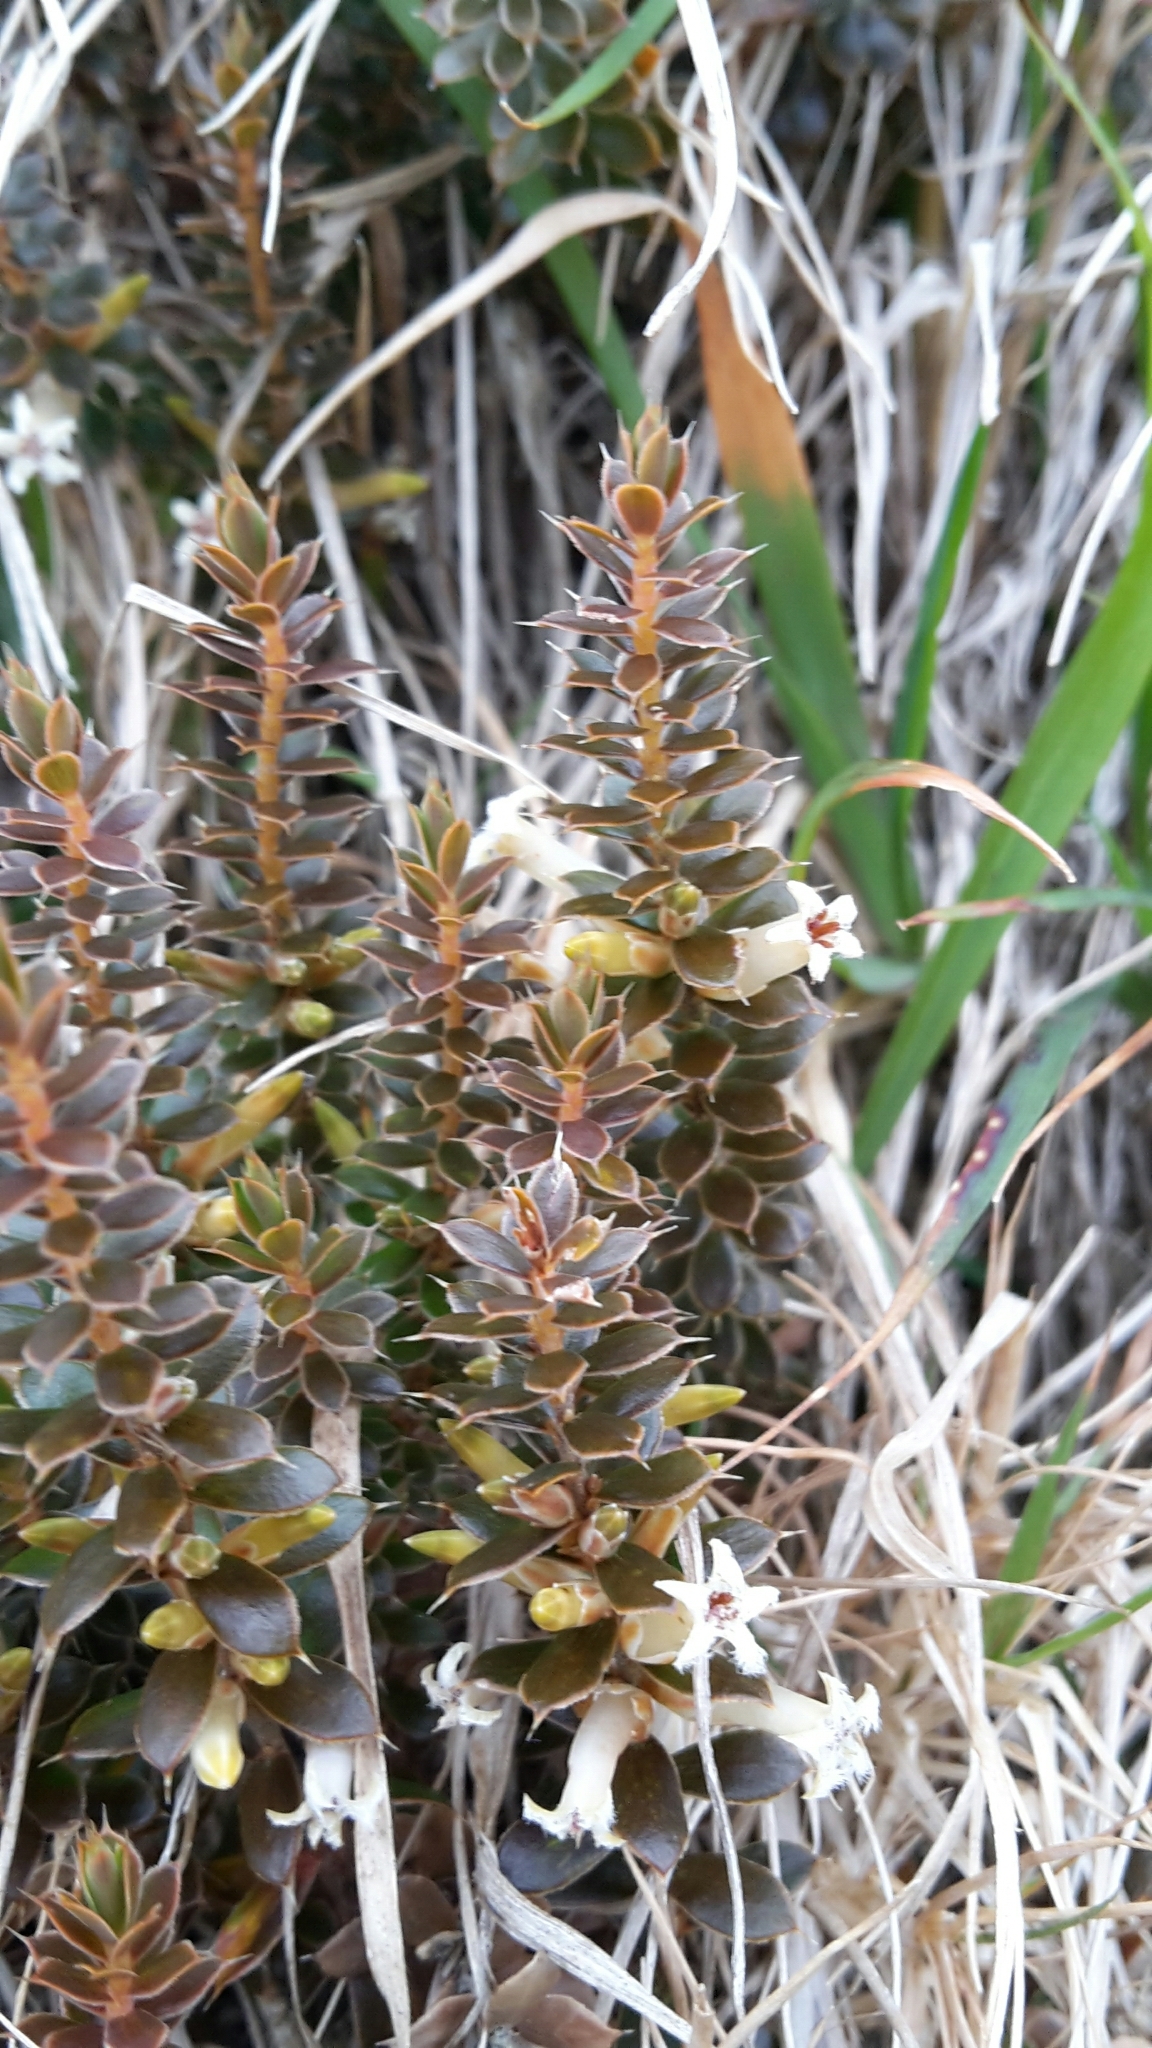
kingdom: Plantae
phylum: Tracheophyta
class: Magnoliopsida
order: Ericales
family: Ericaceae
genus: Styphelia
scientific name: Styphelia nesophila
